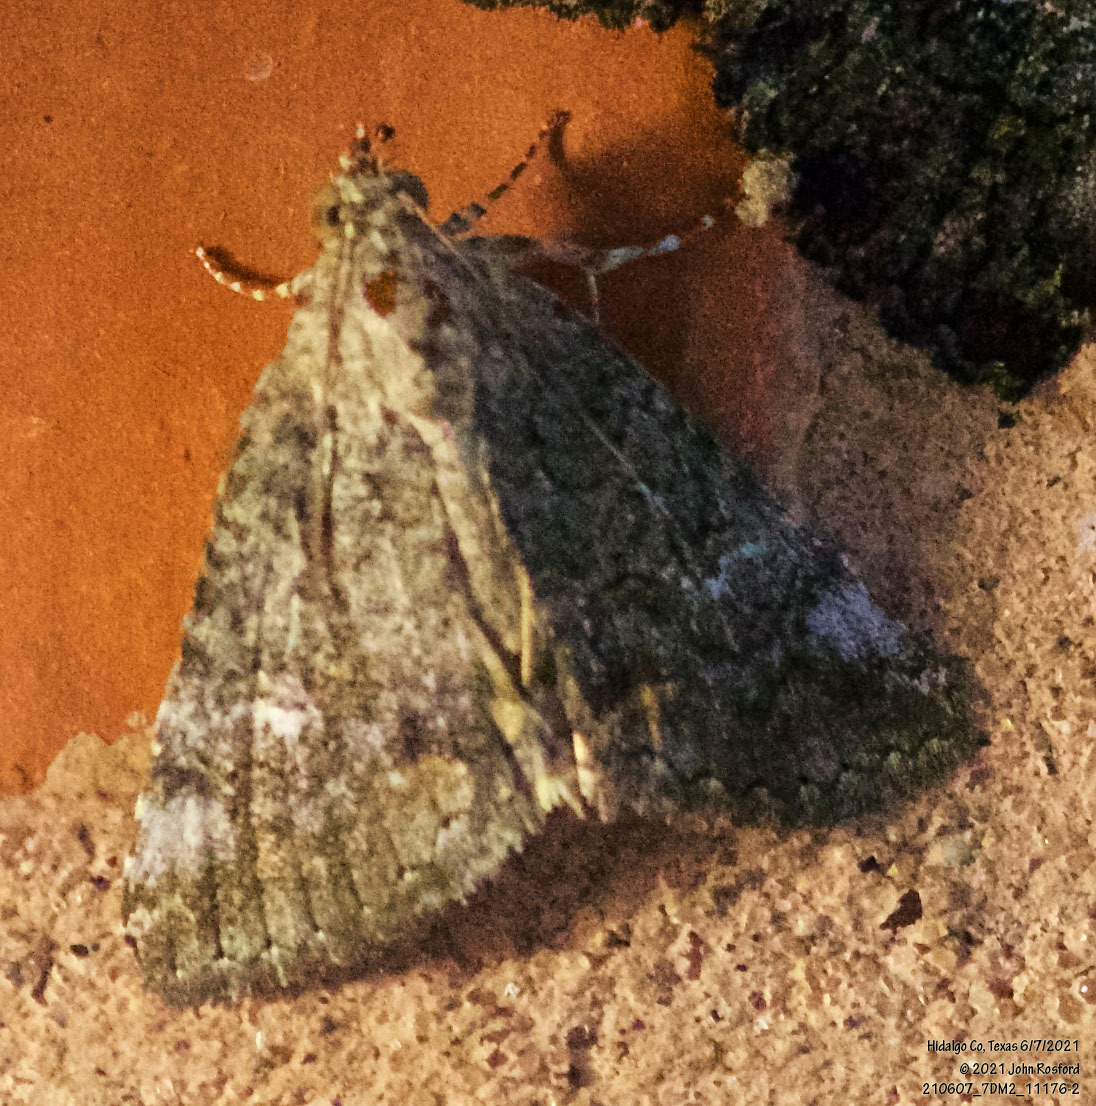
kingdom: Animalia
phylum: Arthropoda
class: Insecta
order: Lepidoptera
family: Erebidae
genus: Eubolina
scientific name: Eubolina impartialis
